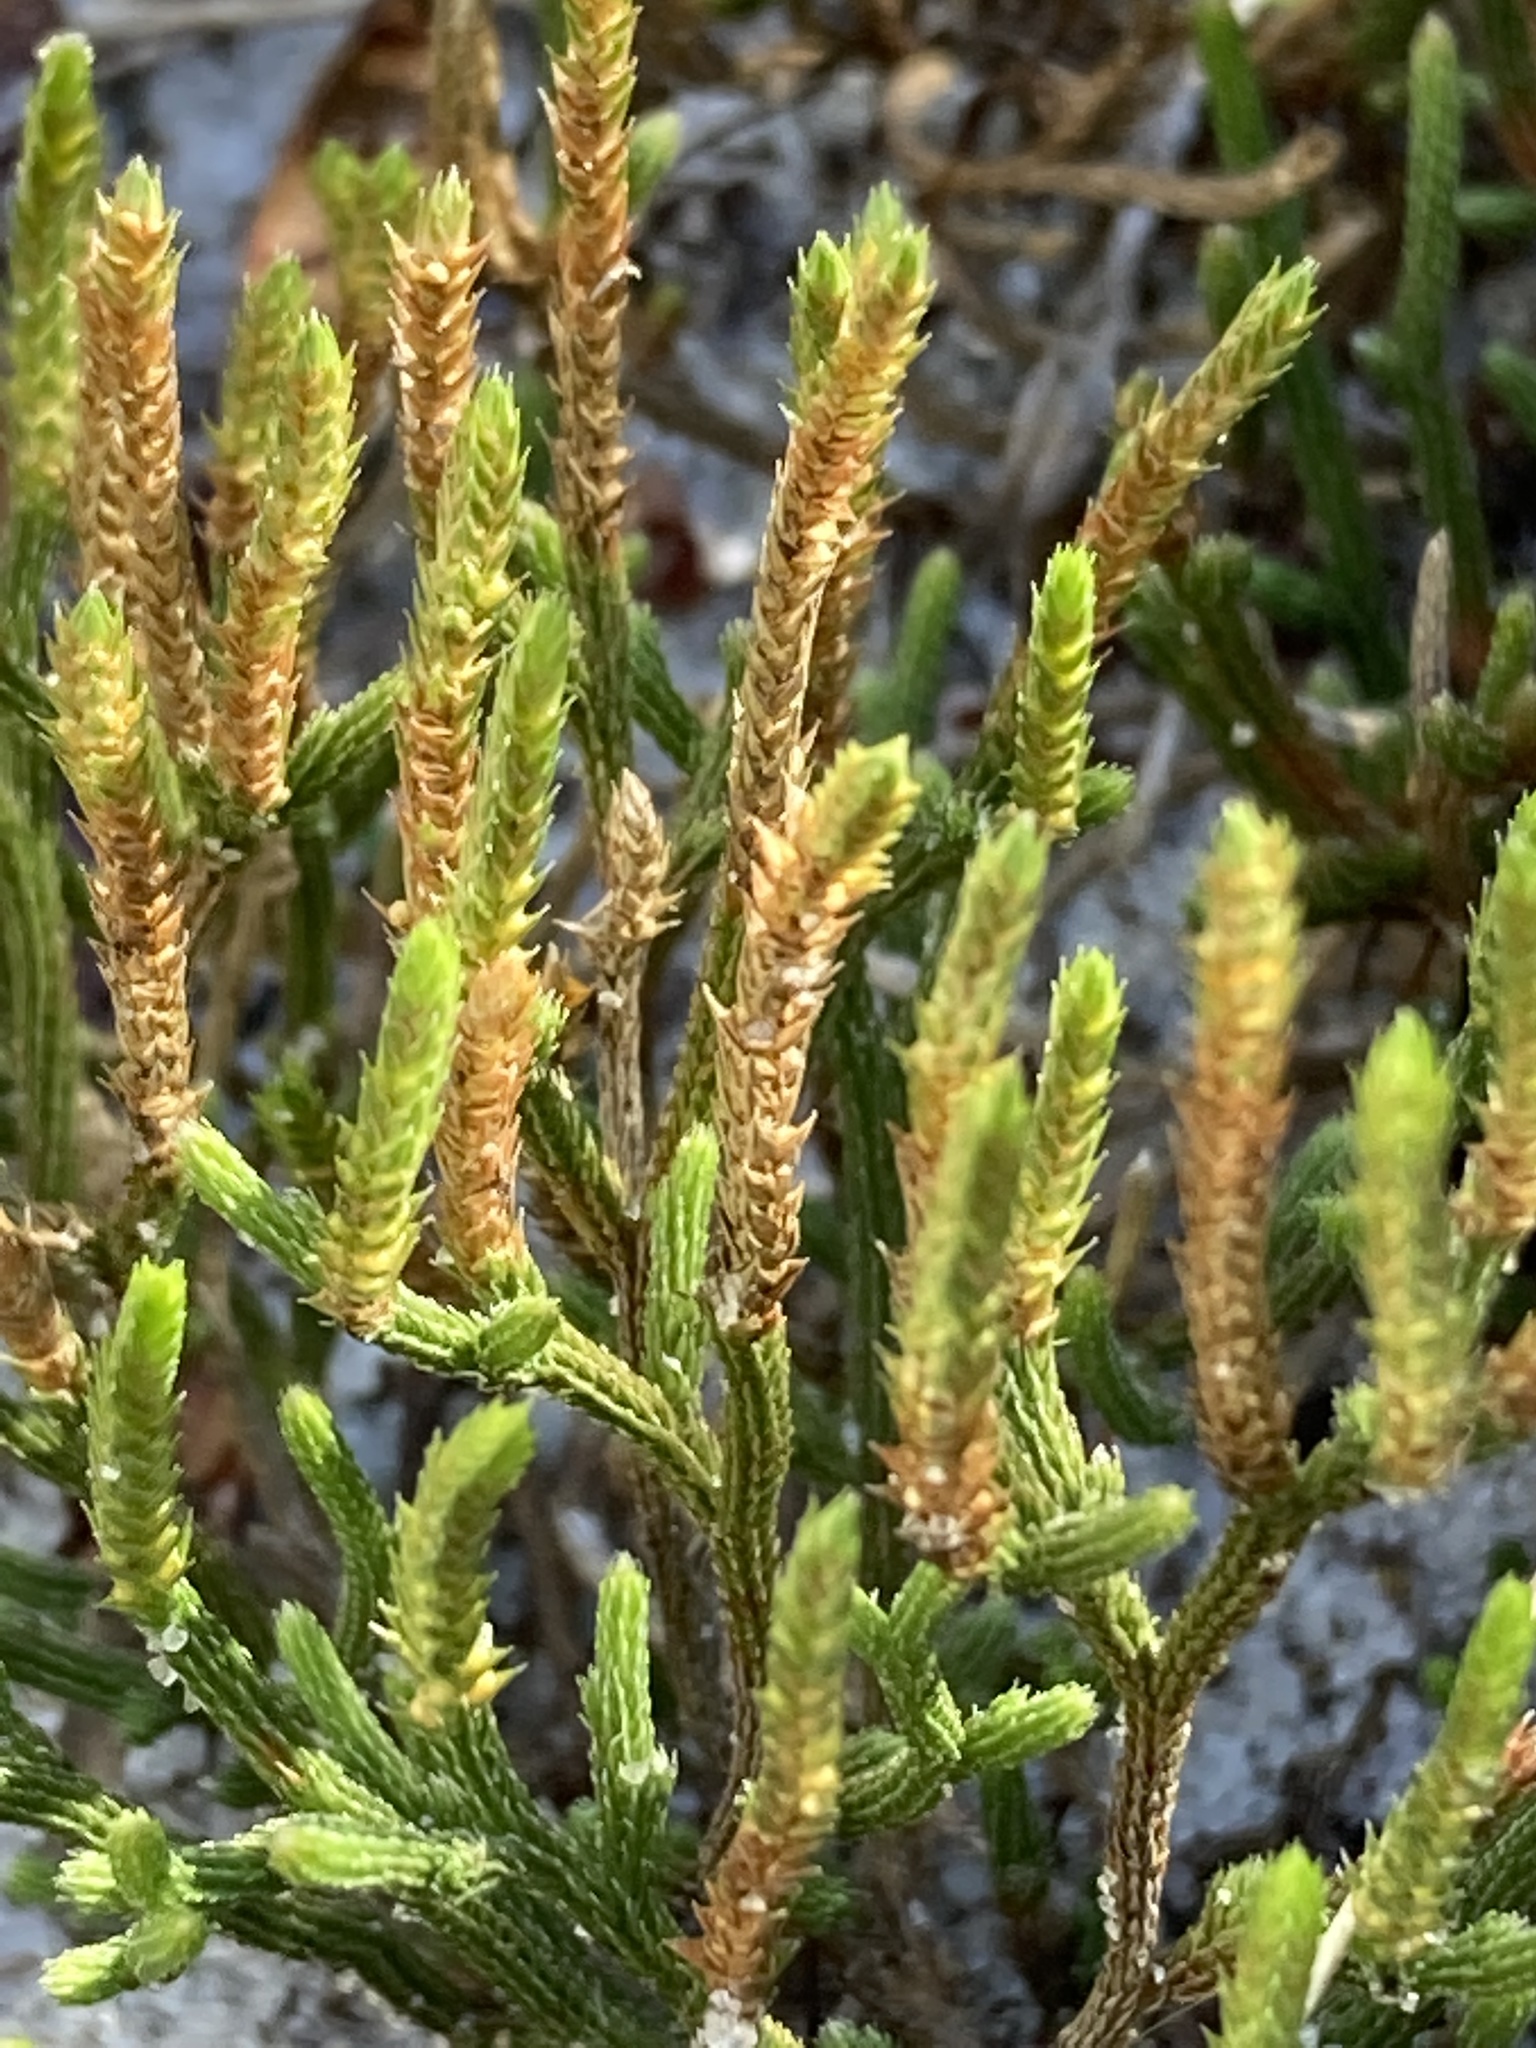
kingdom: Plantae
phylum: Tracheophyta
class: Lycopodiopsida
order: Selaginellales
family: Selaginellaceae
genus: Selaginella
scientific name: Selaginella arenicola
